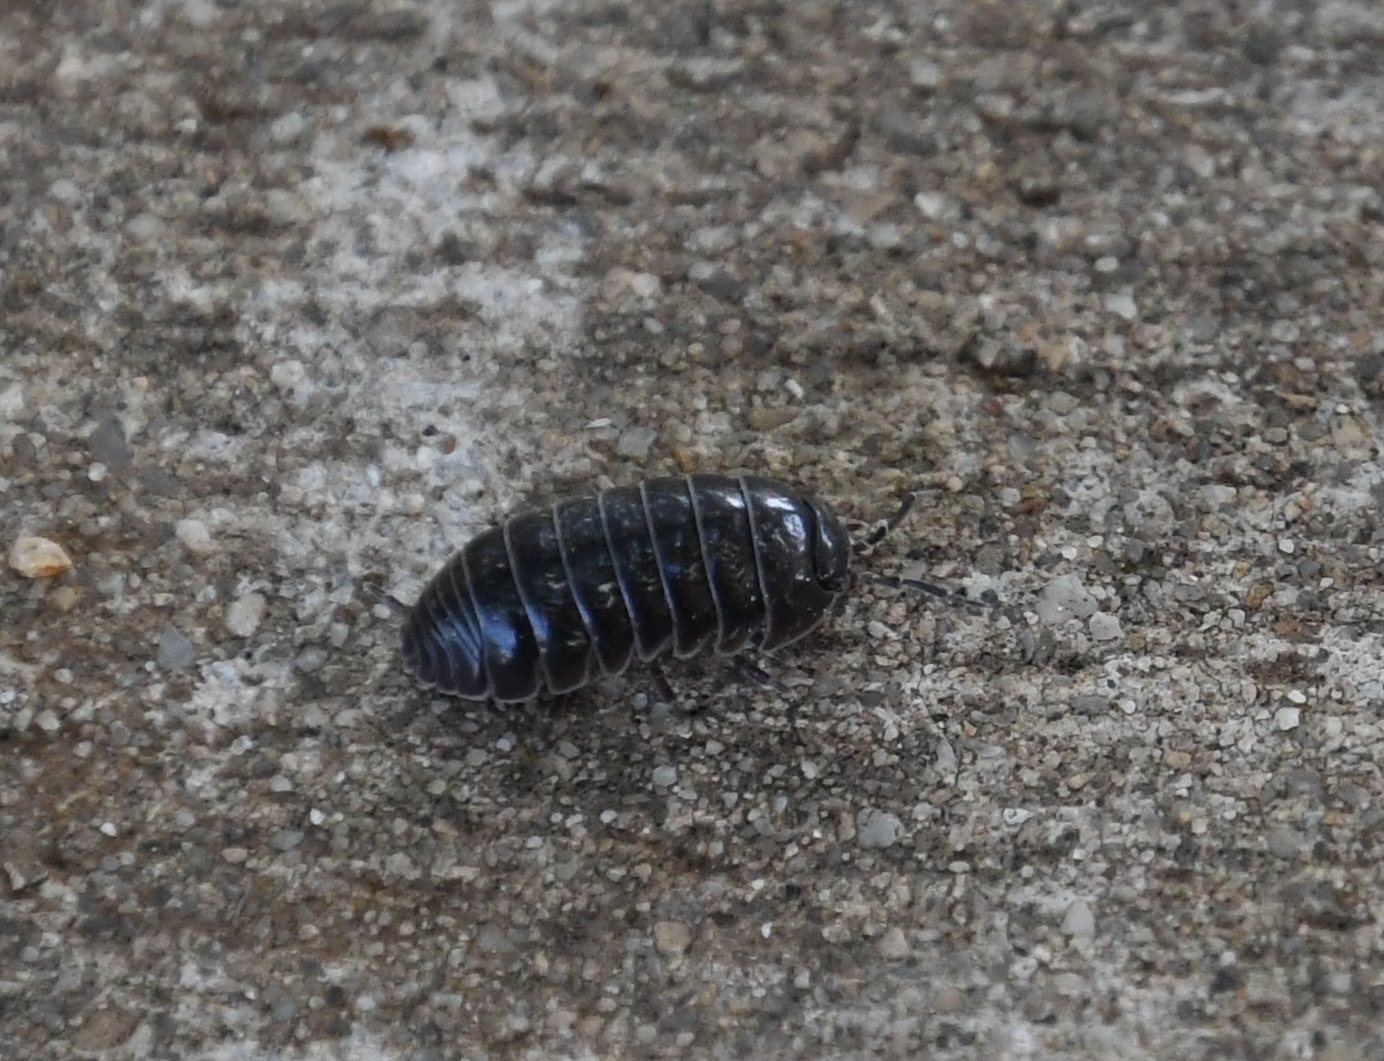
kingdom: Animalia
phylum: Arthropoda
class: Malacostraca
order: Isopoda
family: Armadillidiidae
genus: Armadillidium
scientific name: Armadillidium vulgare
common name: Common pill woodlouse
